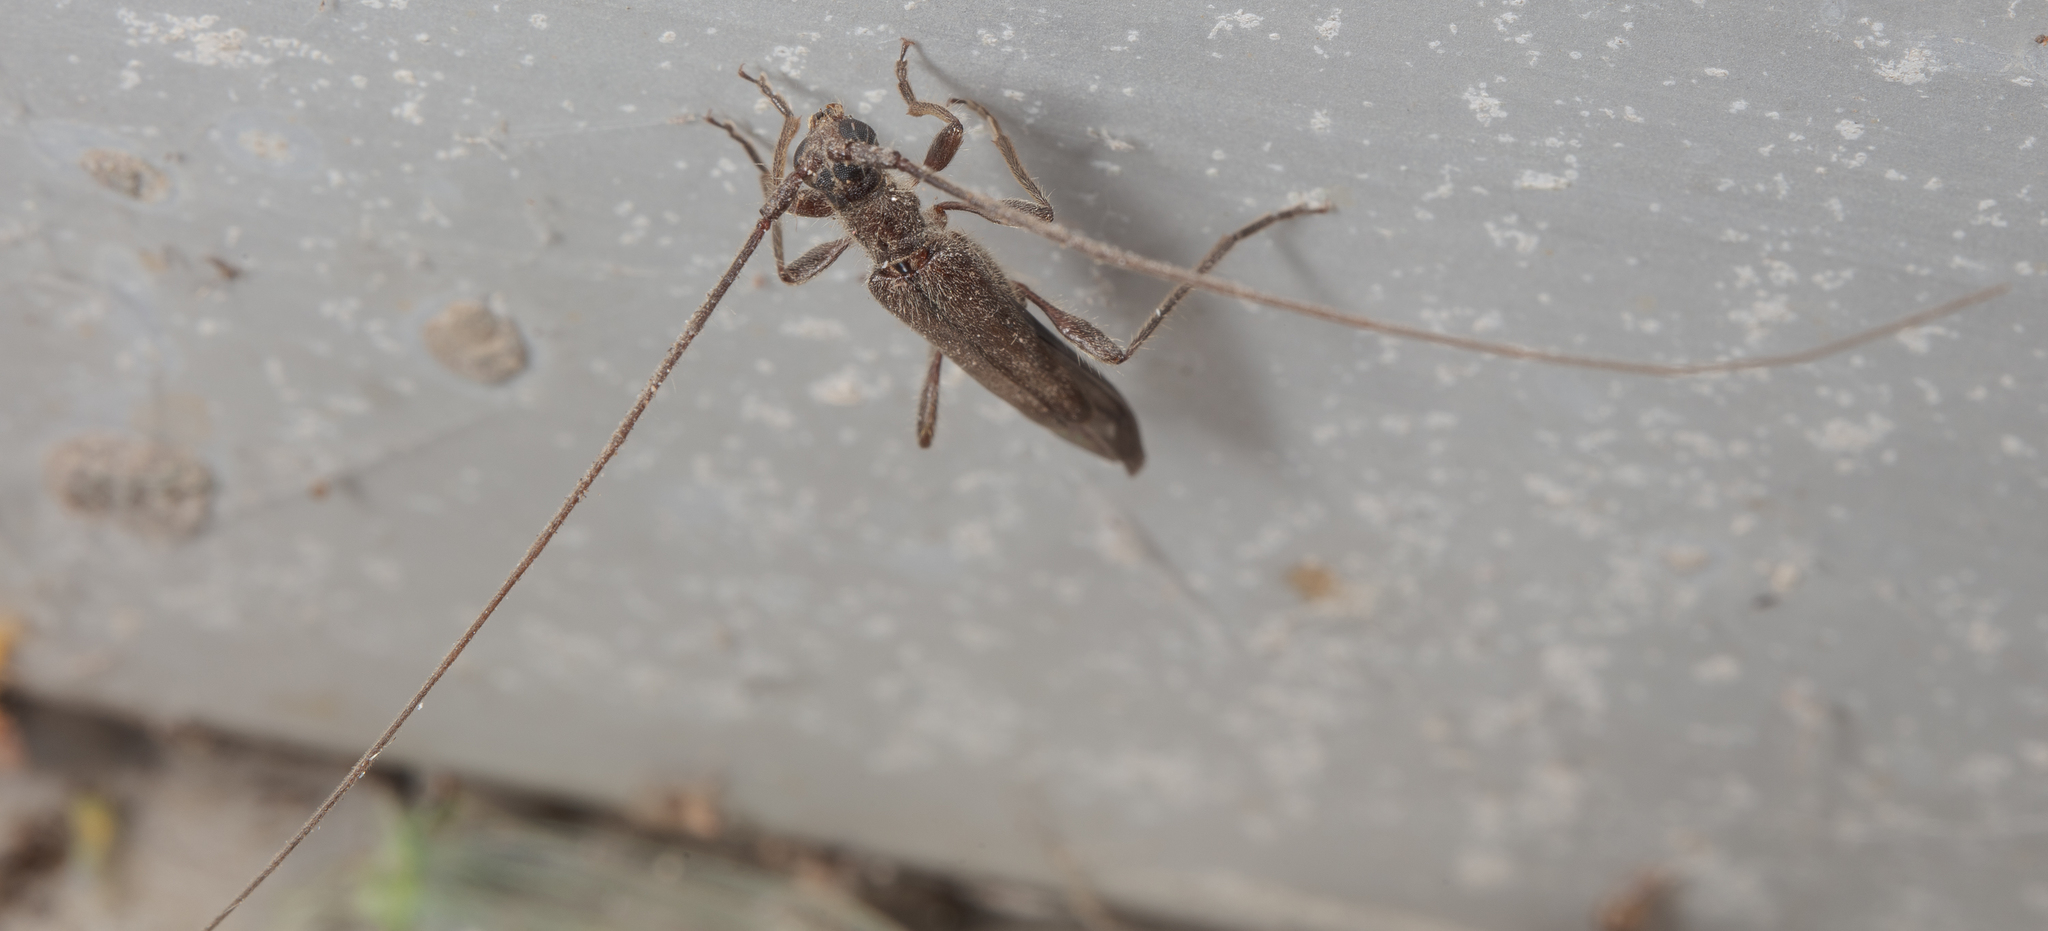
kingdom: Animalia
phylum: Arthropoda
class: Insecta
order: Coleoptera
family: Cerambycidae
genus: Styloxus
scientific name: Styloxus fulleri
